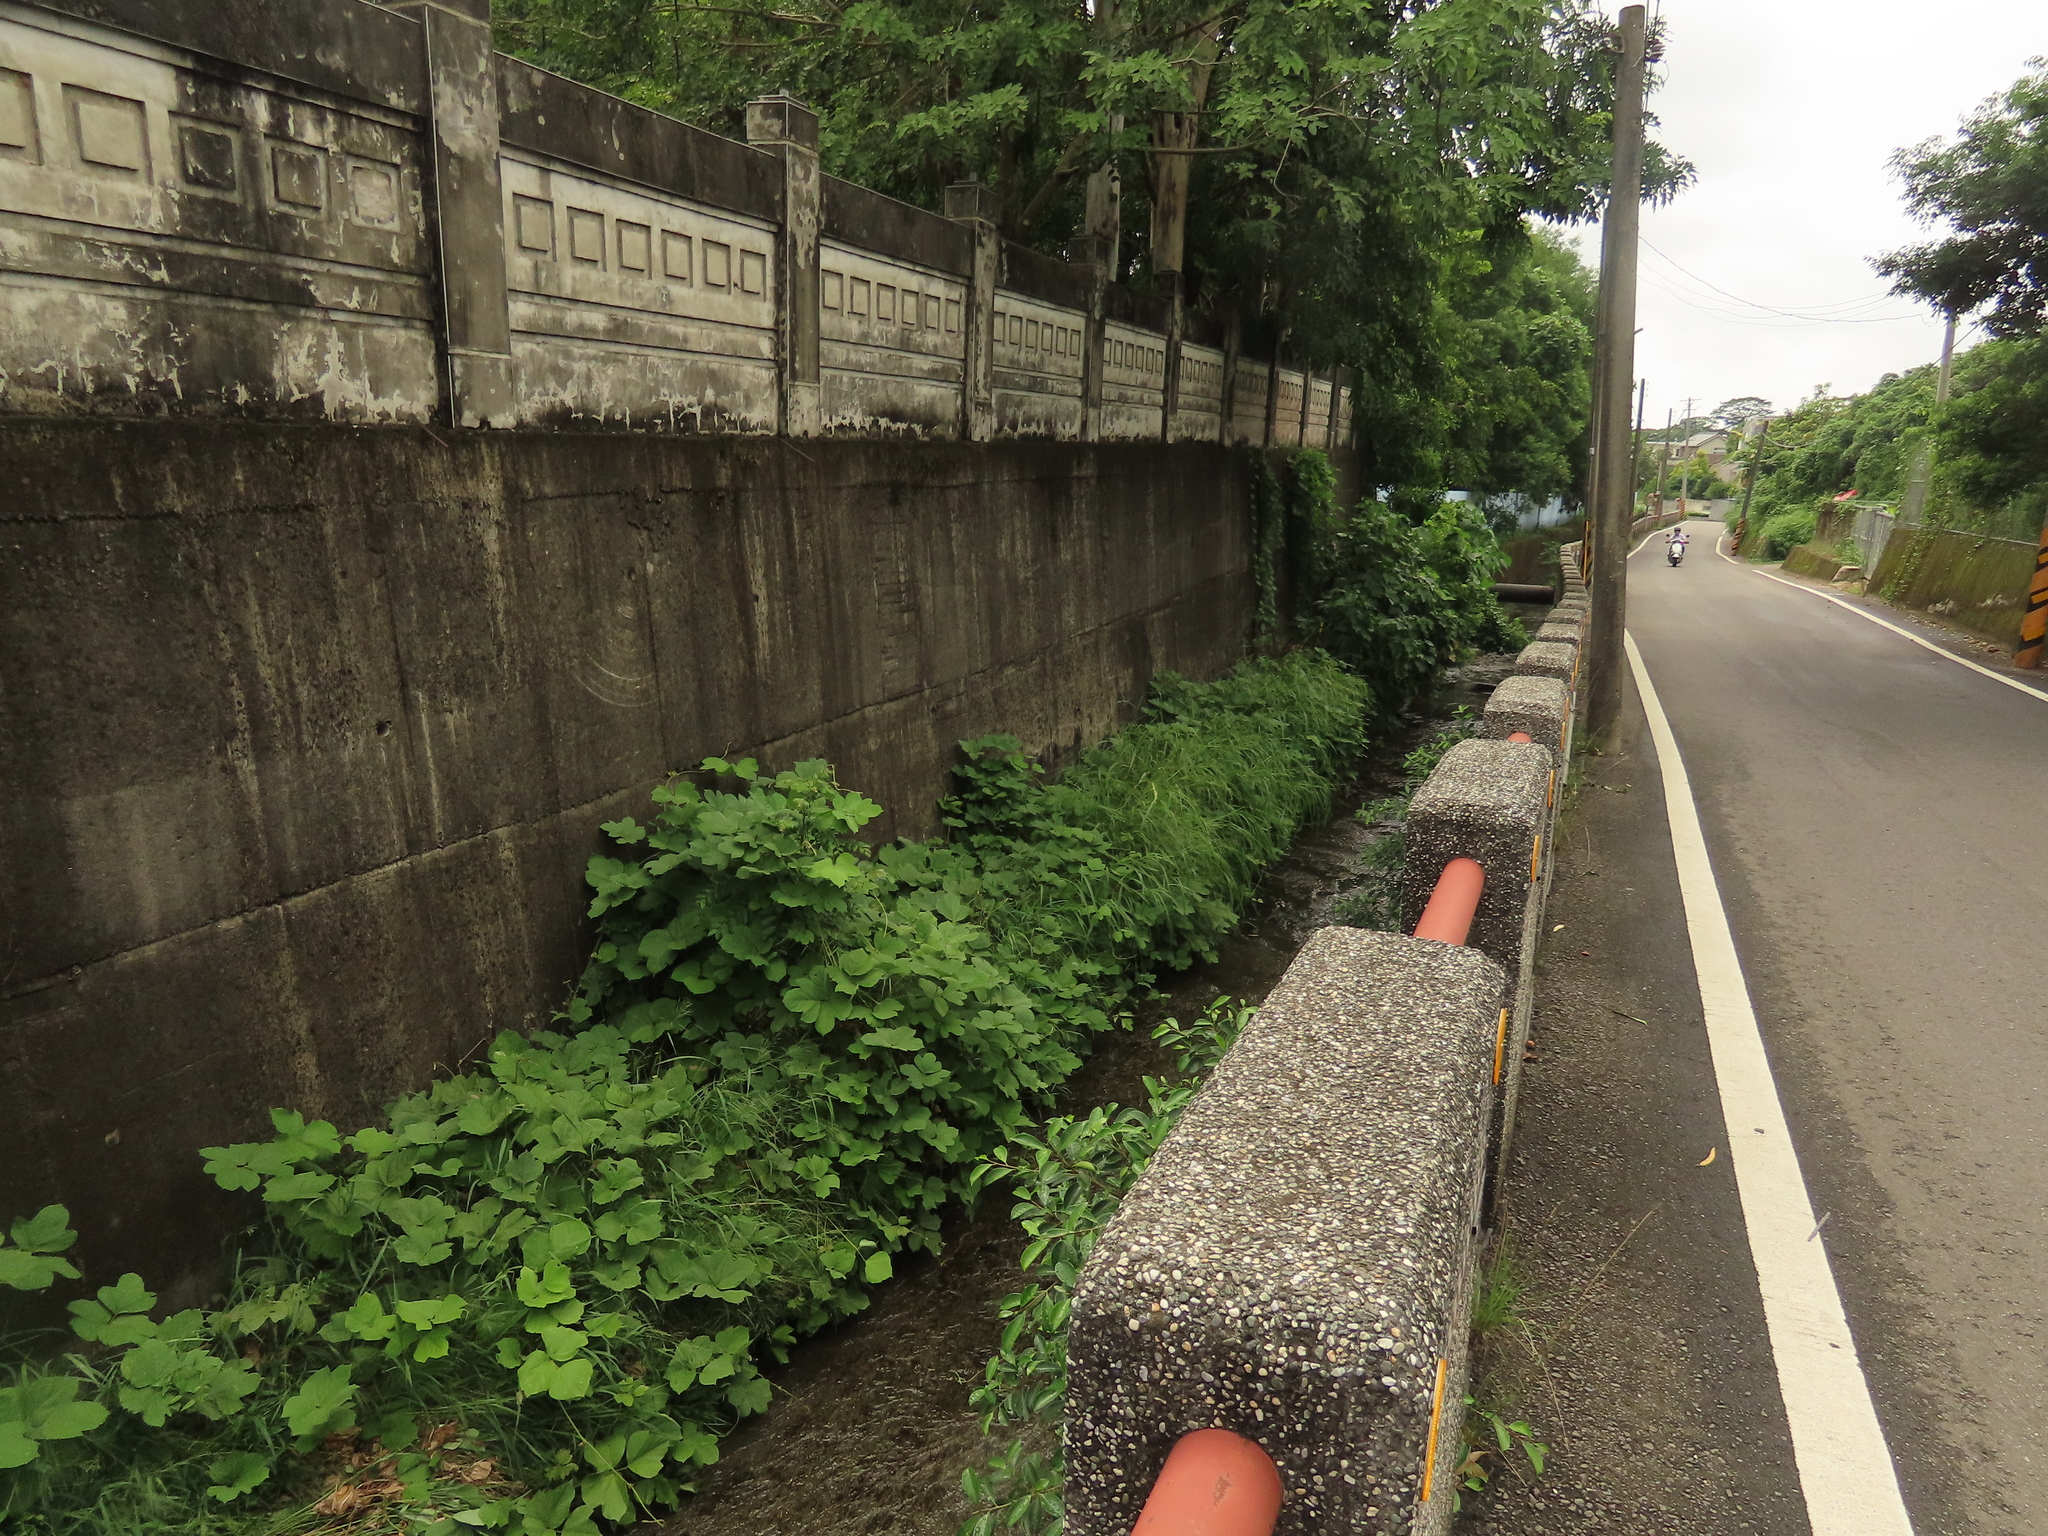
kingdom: Plantae
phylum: Tracheophyta
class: Magnoliopsida
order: Fabales
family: Fabaceae
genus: Pueraria
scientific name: Pueraria montana
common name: Kudzu
